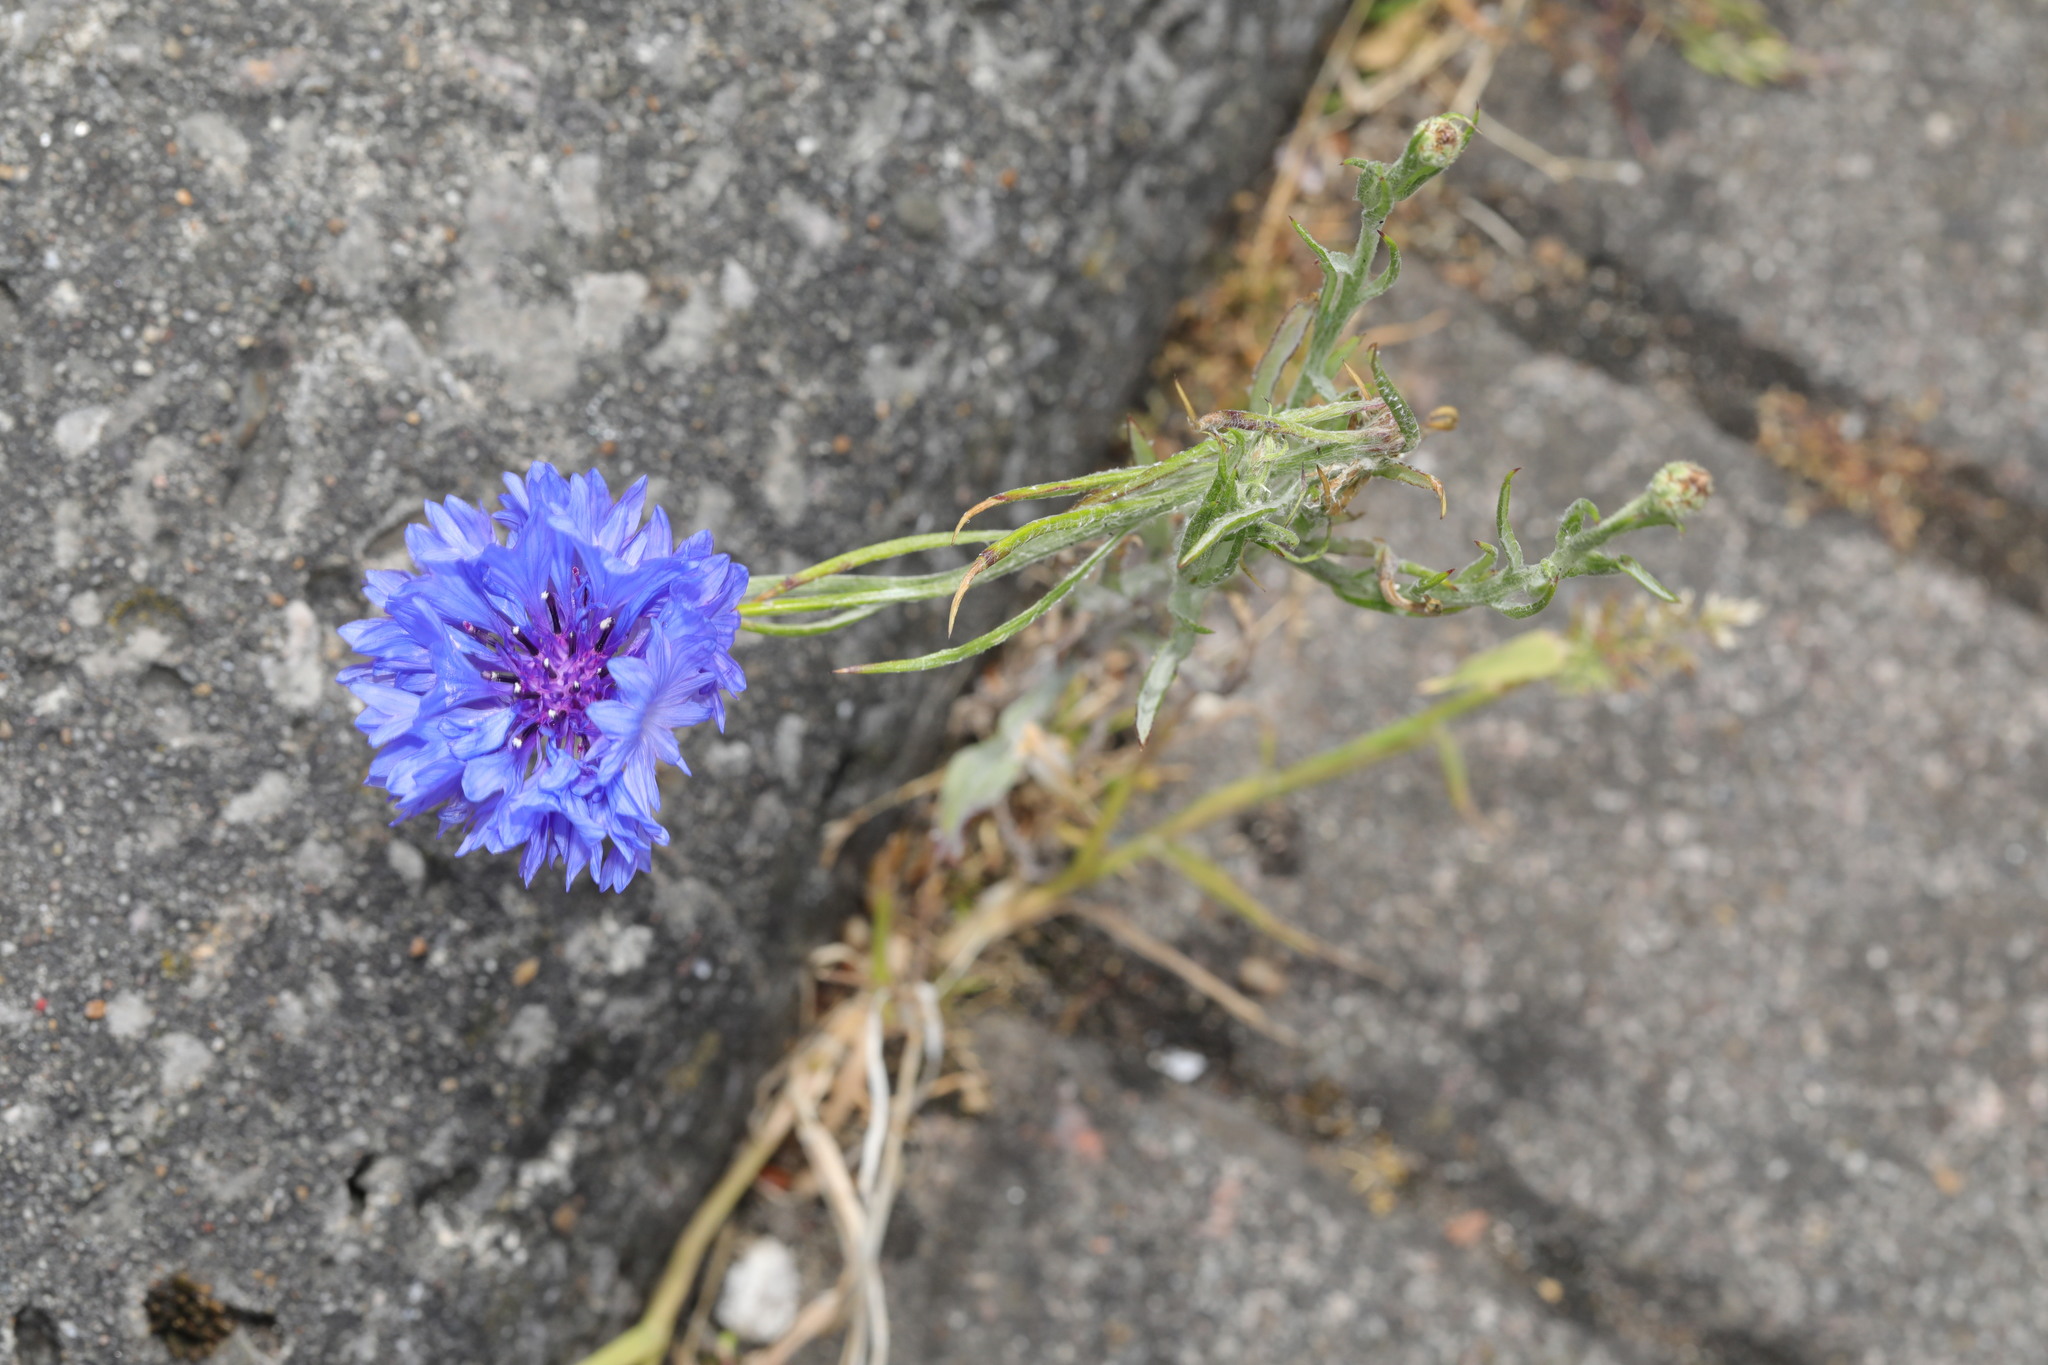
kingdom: Plantae
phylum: Tracheophyta
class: Magnoliopsida
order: Asterales
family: Asteraceae
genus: Centaurea
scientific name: Centaurea cyanus
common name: Cornflower
